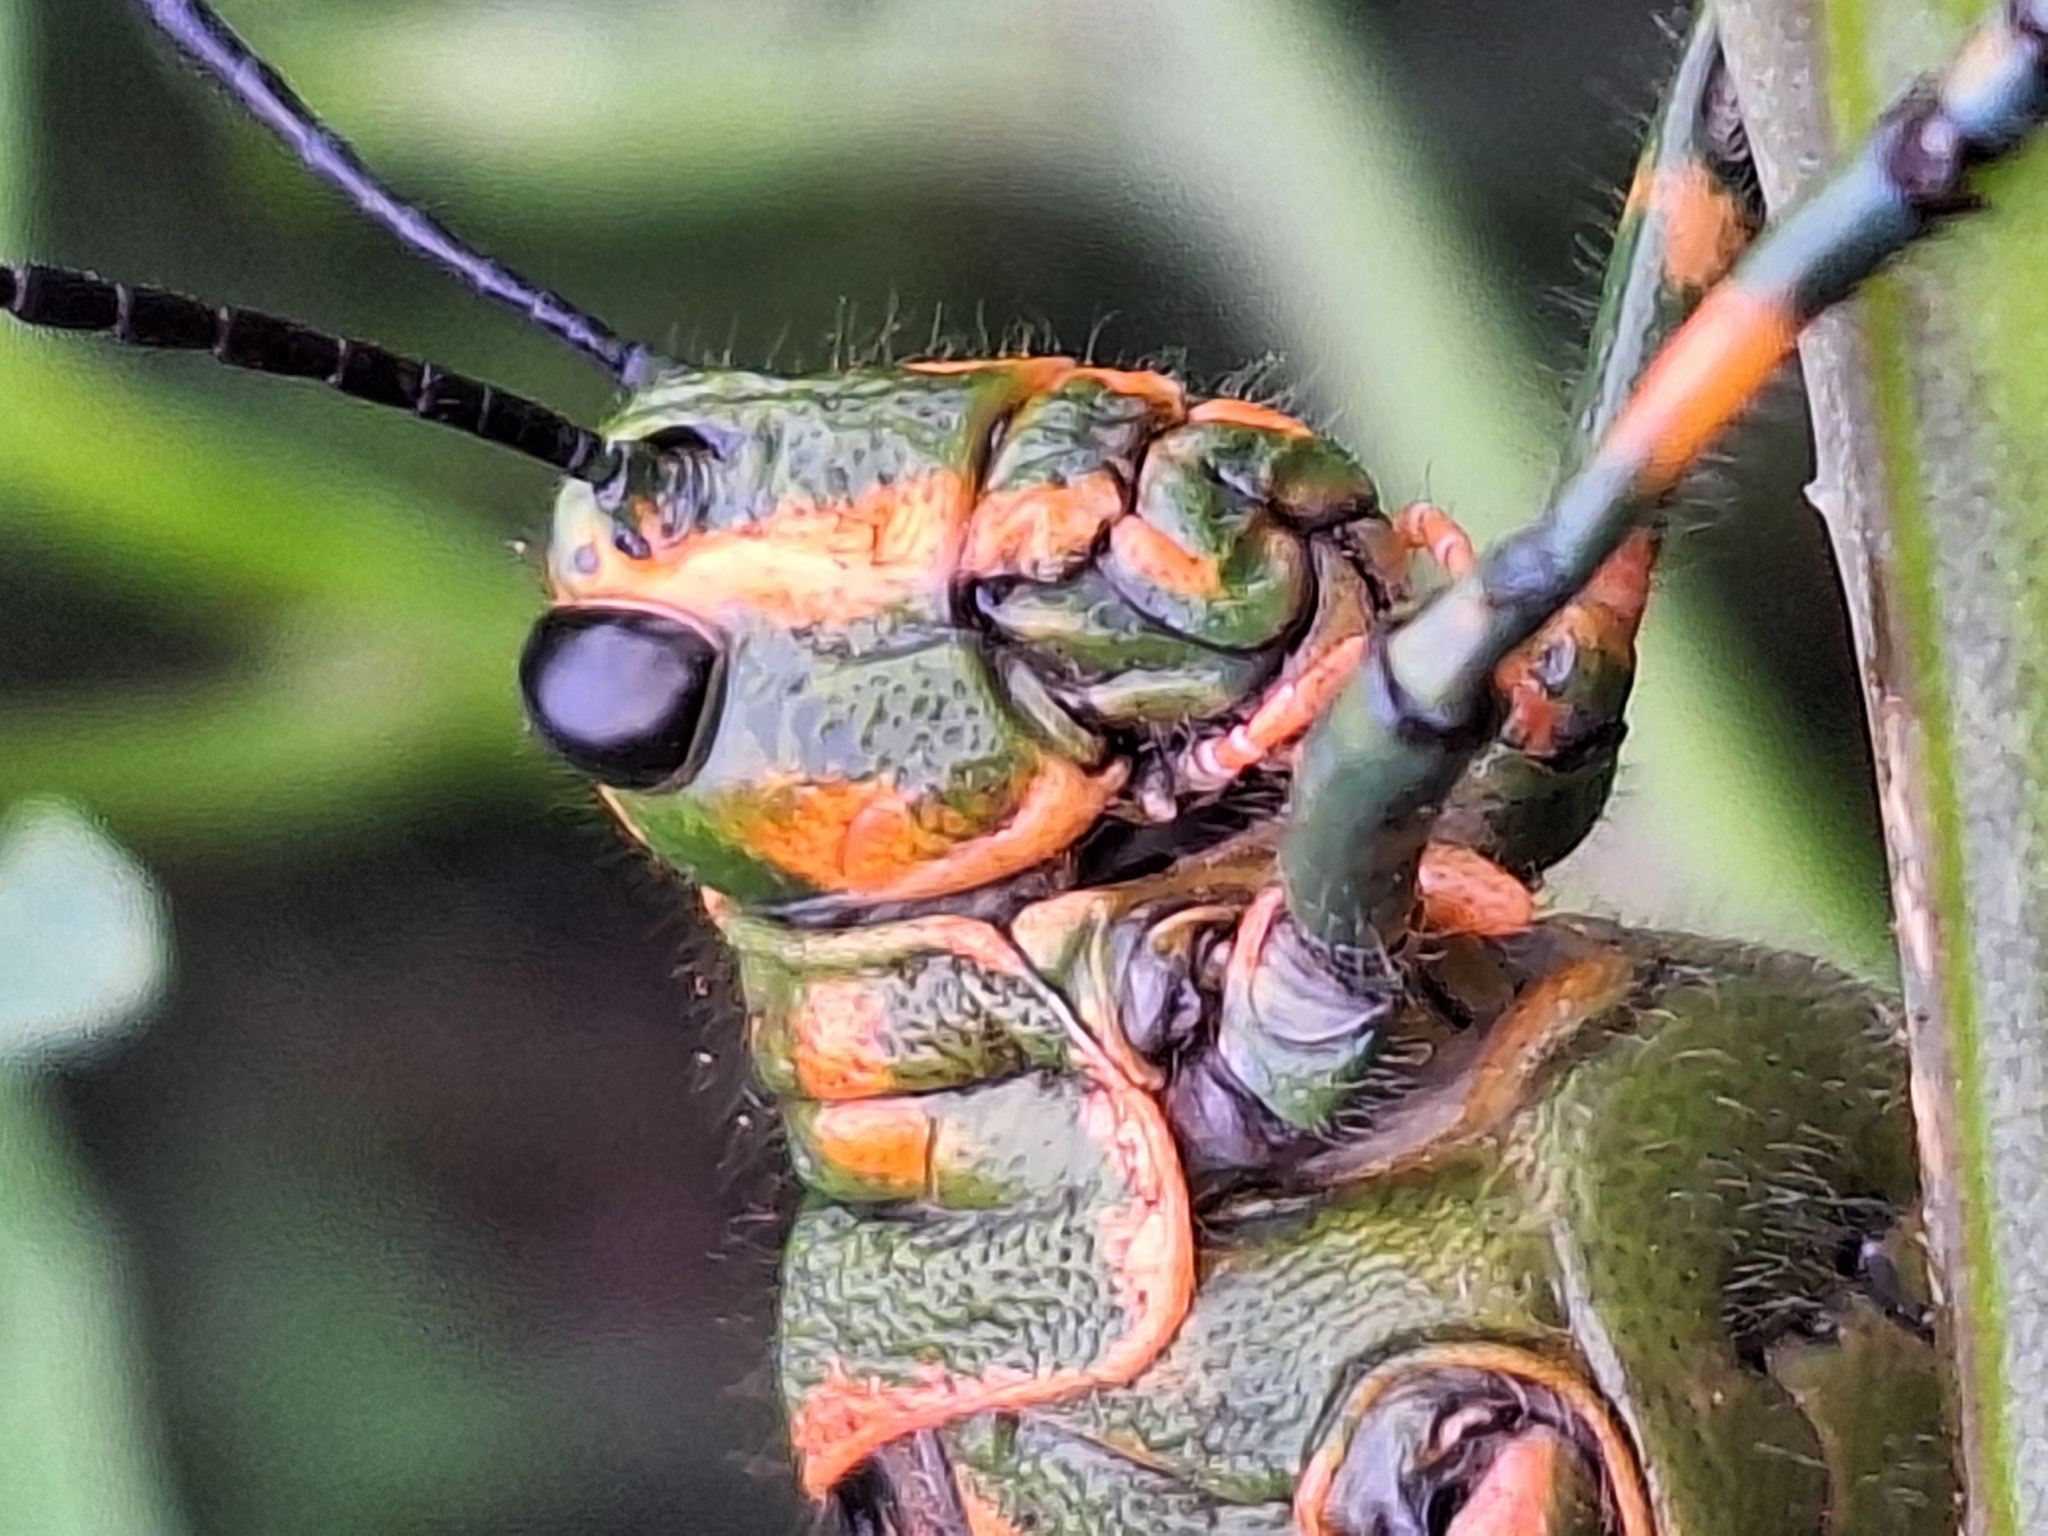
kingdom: Animalia
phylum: Arthropoda
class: Insecta
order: Orthoptera
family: Romaleidae
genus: Chromacris
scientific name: Chromacris speciosa
